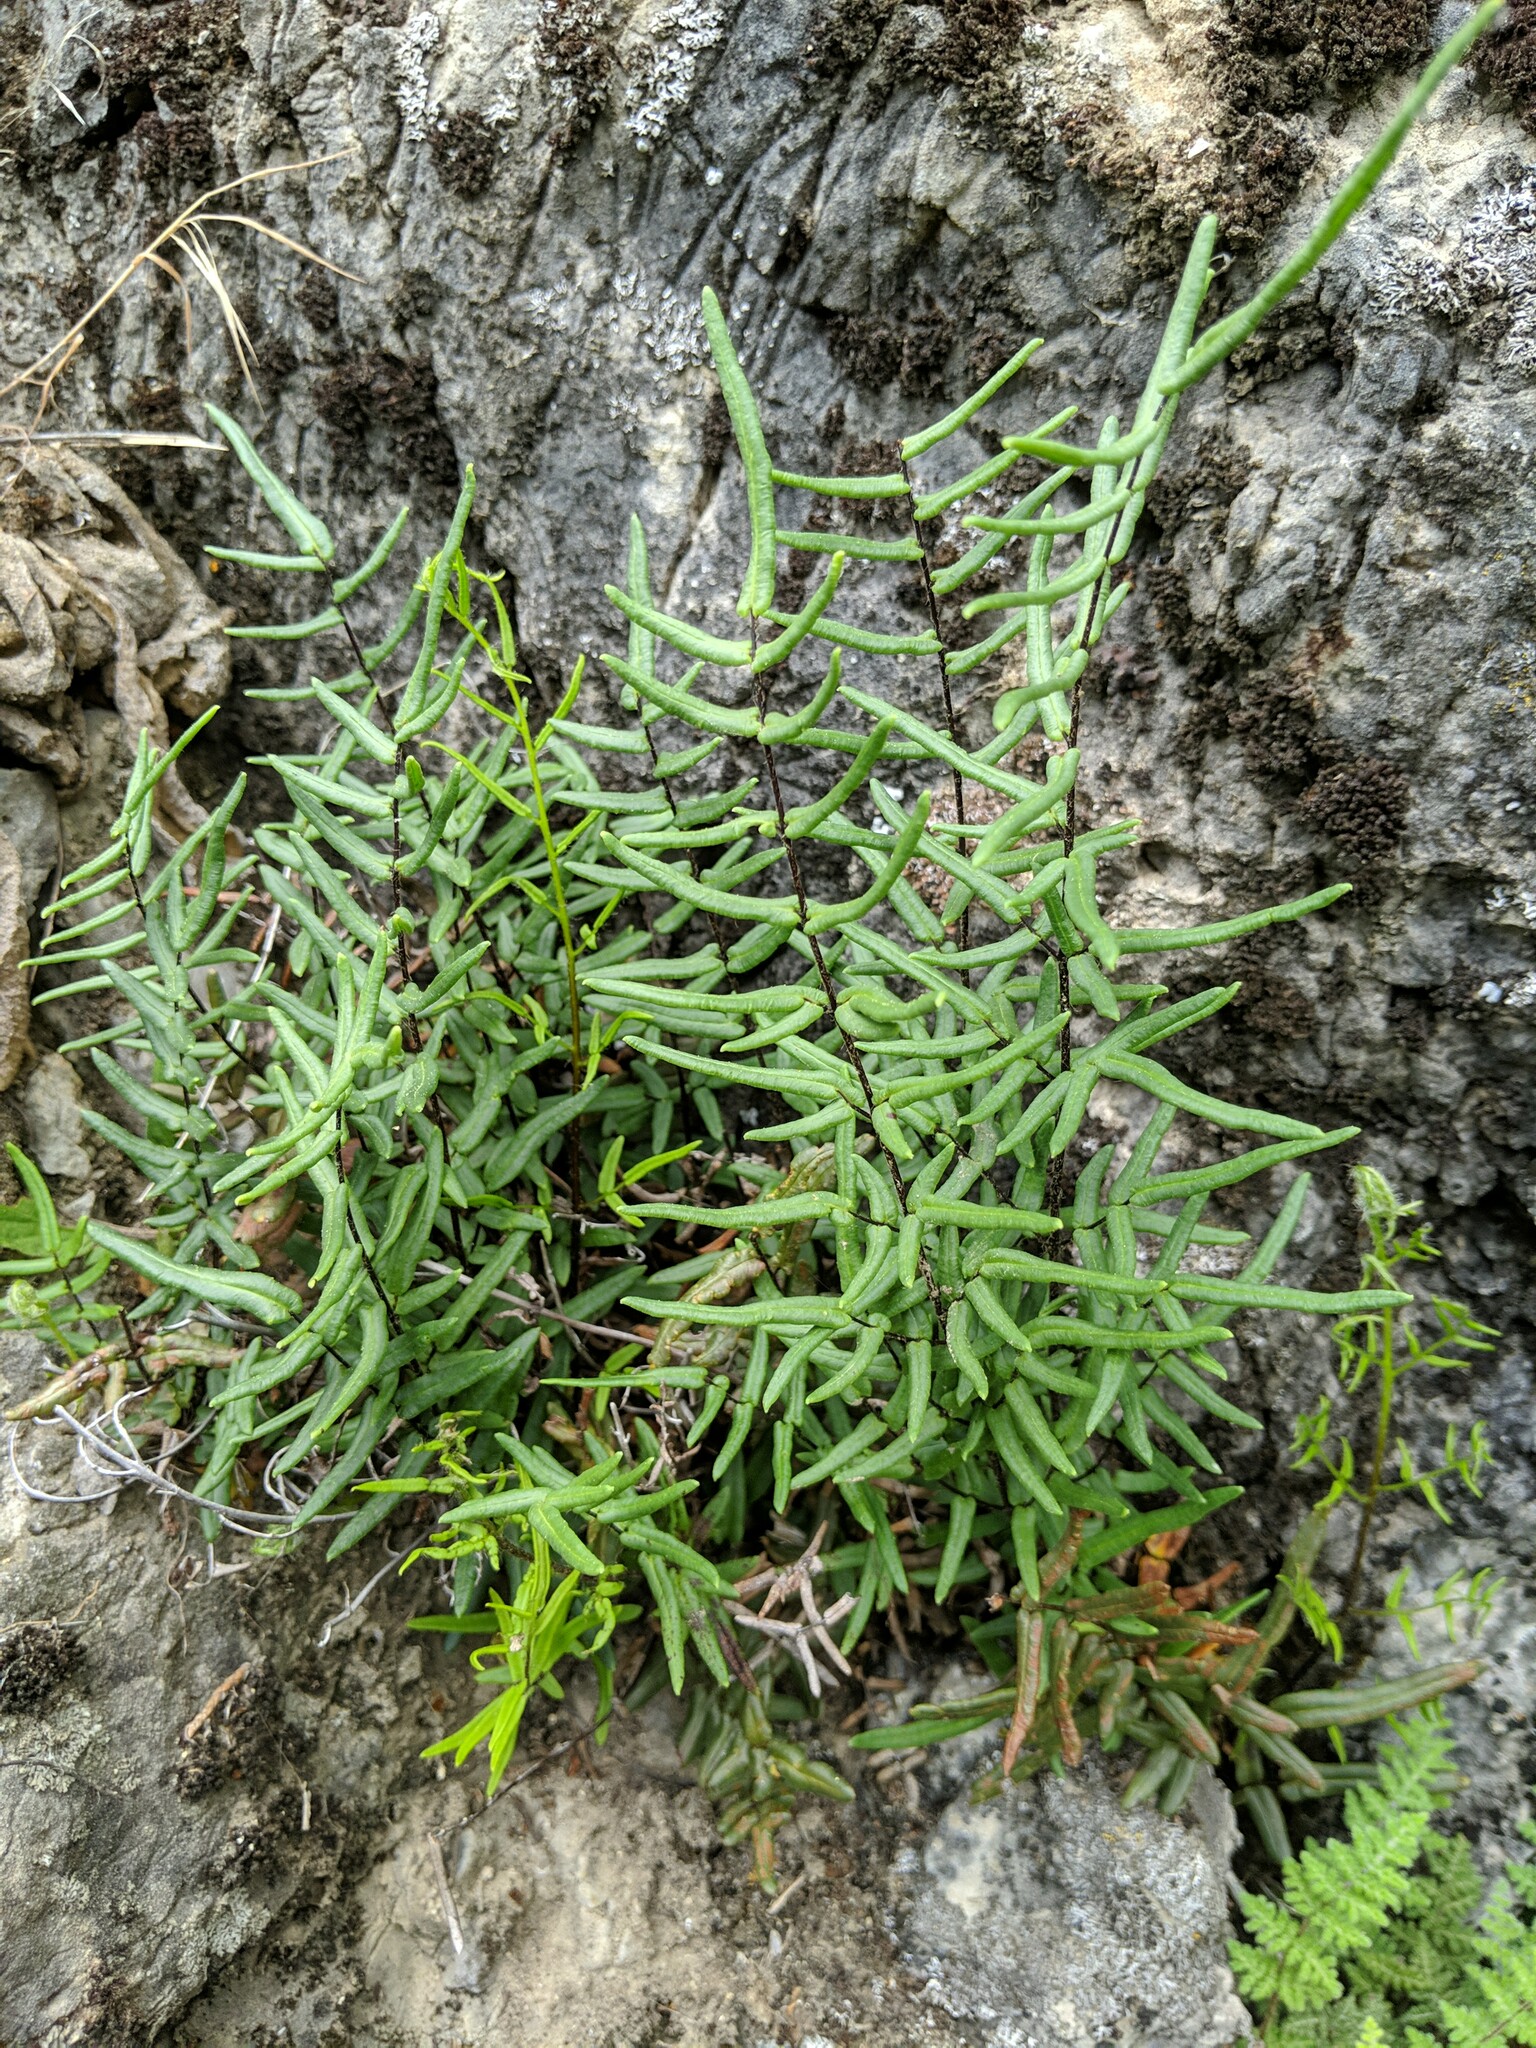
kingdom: Plantae
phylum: Tracheophyta
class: Polypodiopsida
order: Polypodiales
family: Pteridaceae
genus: Pellaea
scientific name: Pellaea gastonyi
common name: Gastony's cliffbrake
